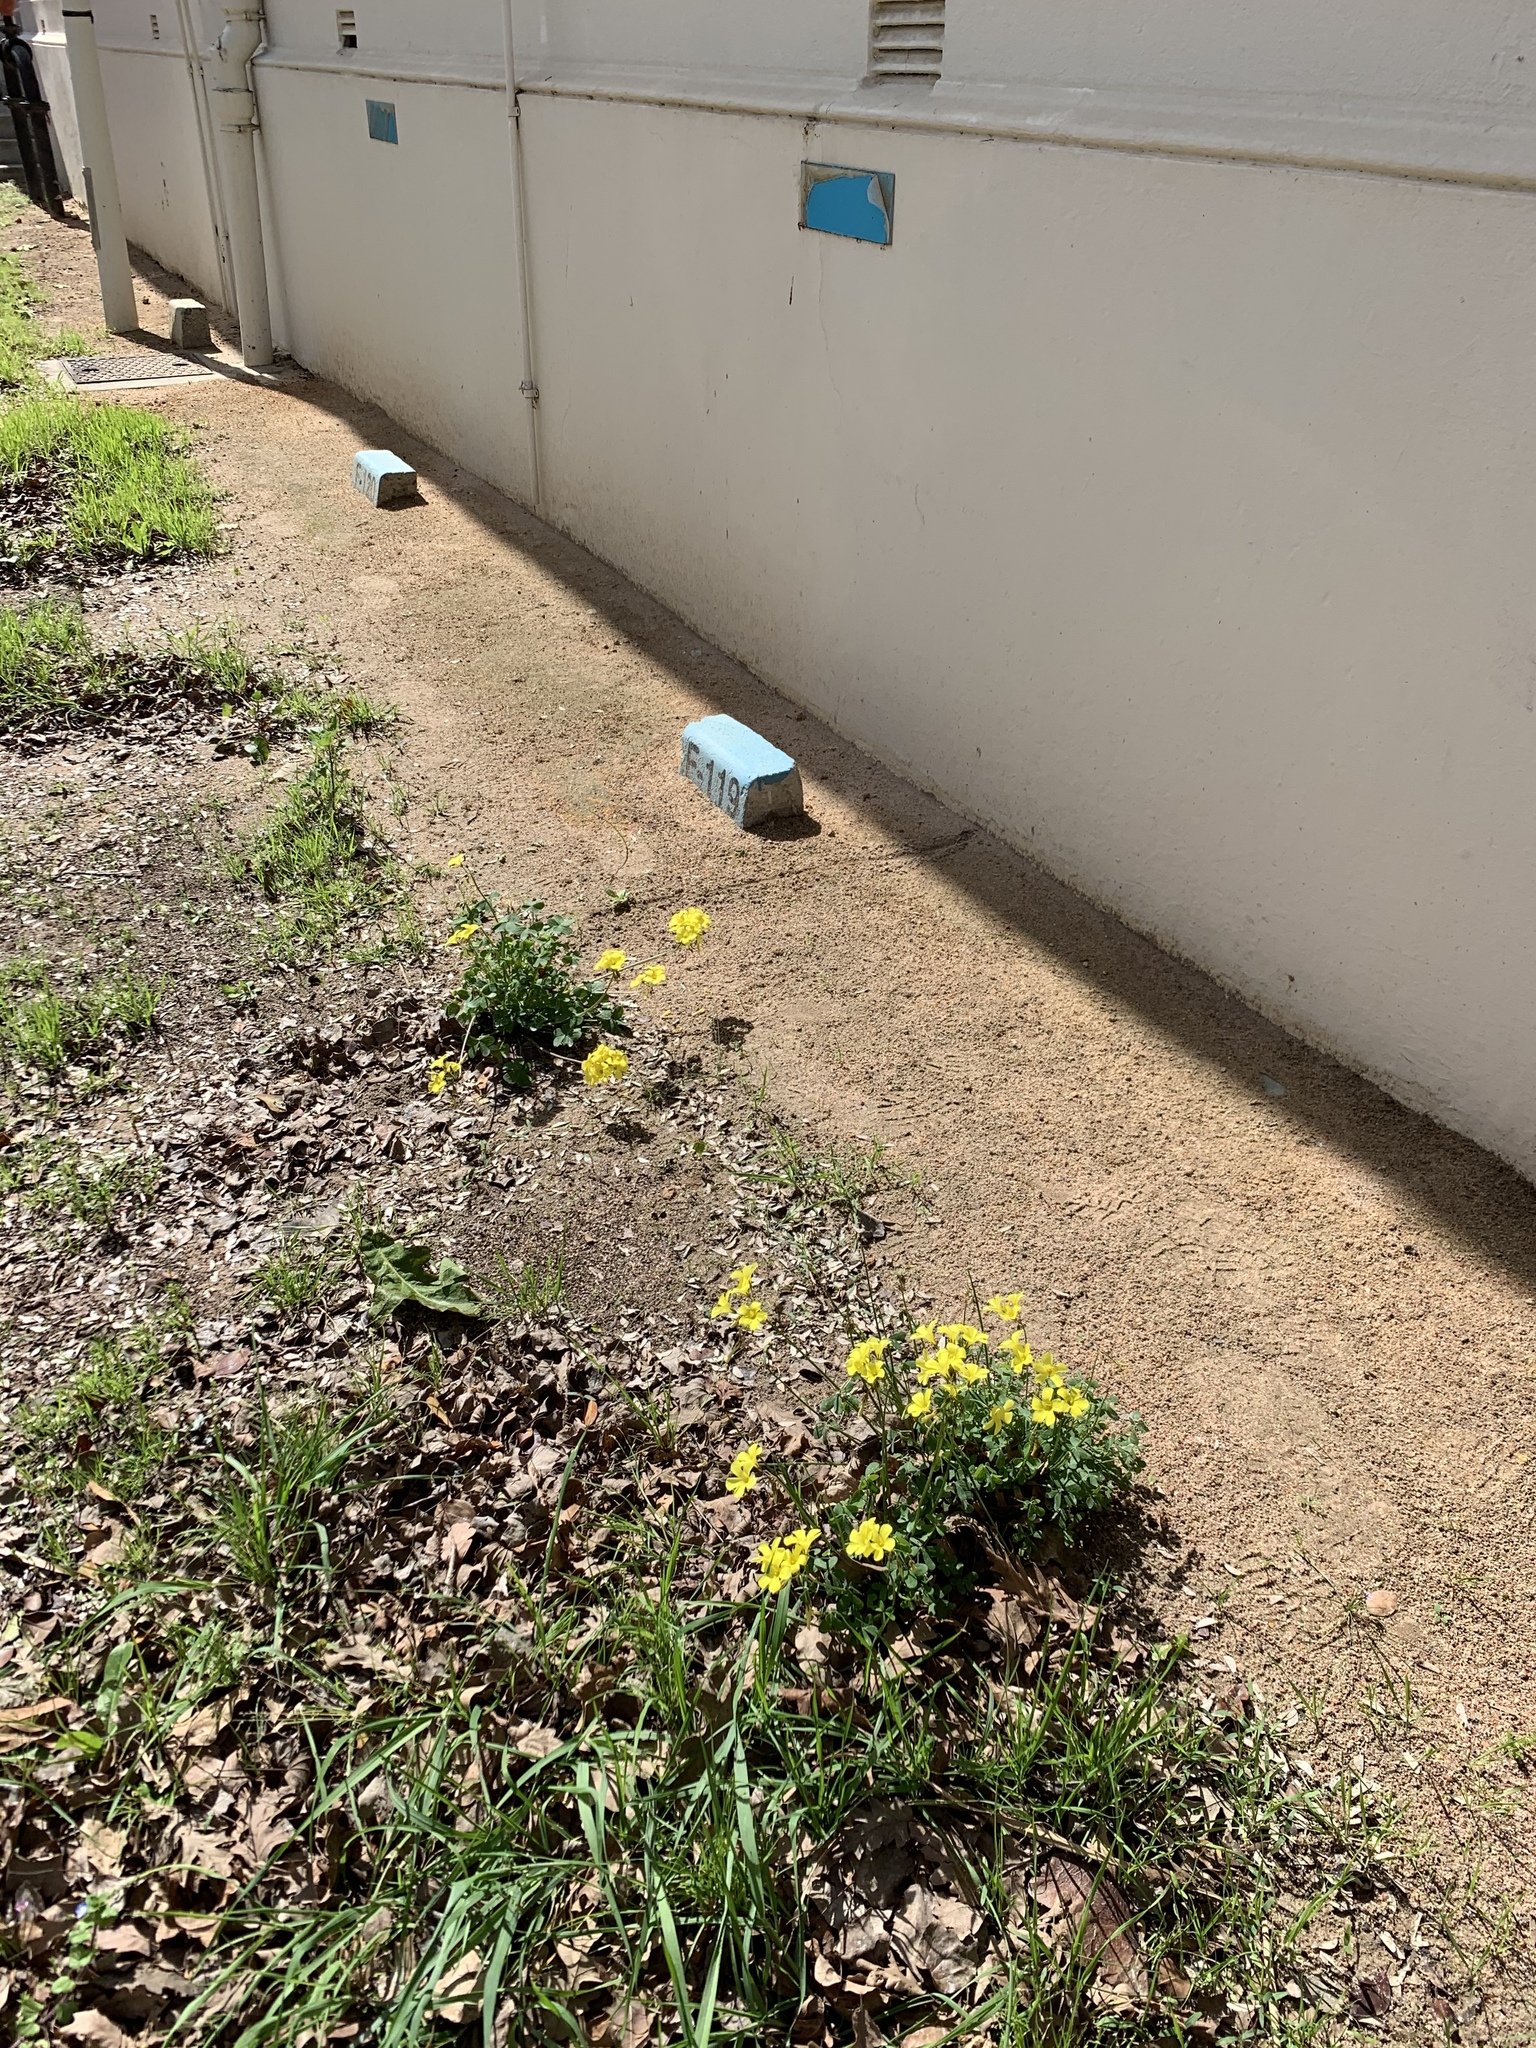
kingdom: Plantae
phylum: Tracheophyta
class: Magnoliopsida
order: Oxalidales
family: Oxalidaceae
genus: Oxalis
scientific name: Oxalis pes-caprae
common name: Bermuda-buttercup
